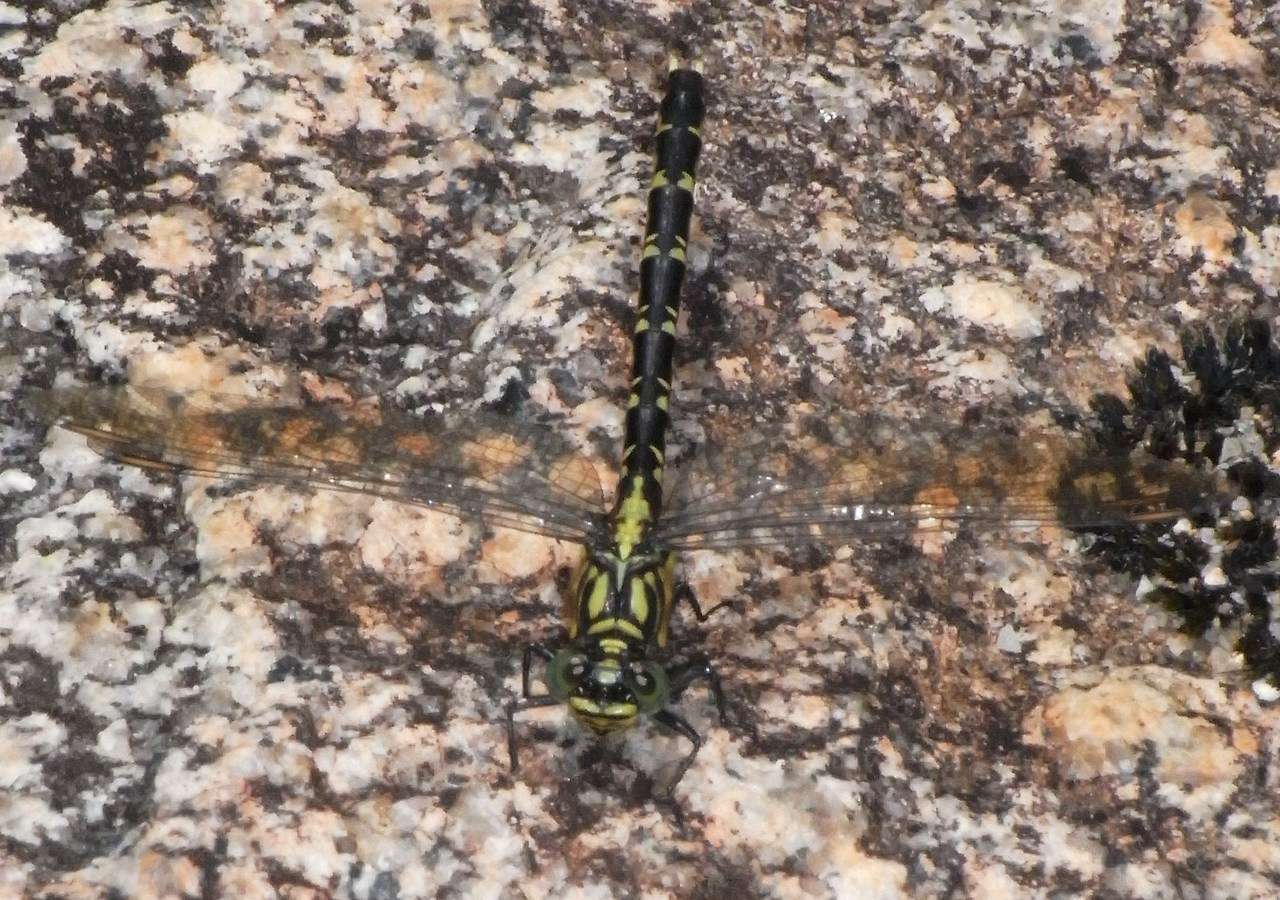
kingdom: Animalia
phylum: Arthropoda
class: Insecta
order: Odonata
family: Gomphidae
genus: Hemigomphus
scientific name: Hemigomphus gouldii
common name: Southern vicetail
